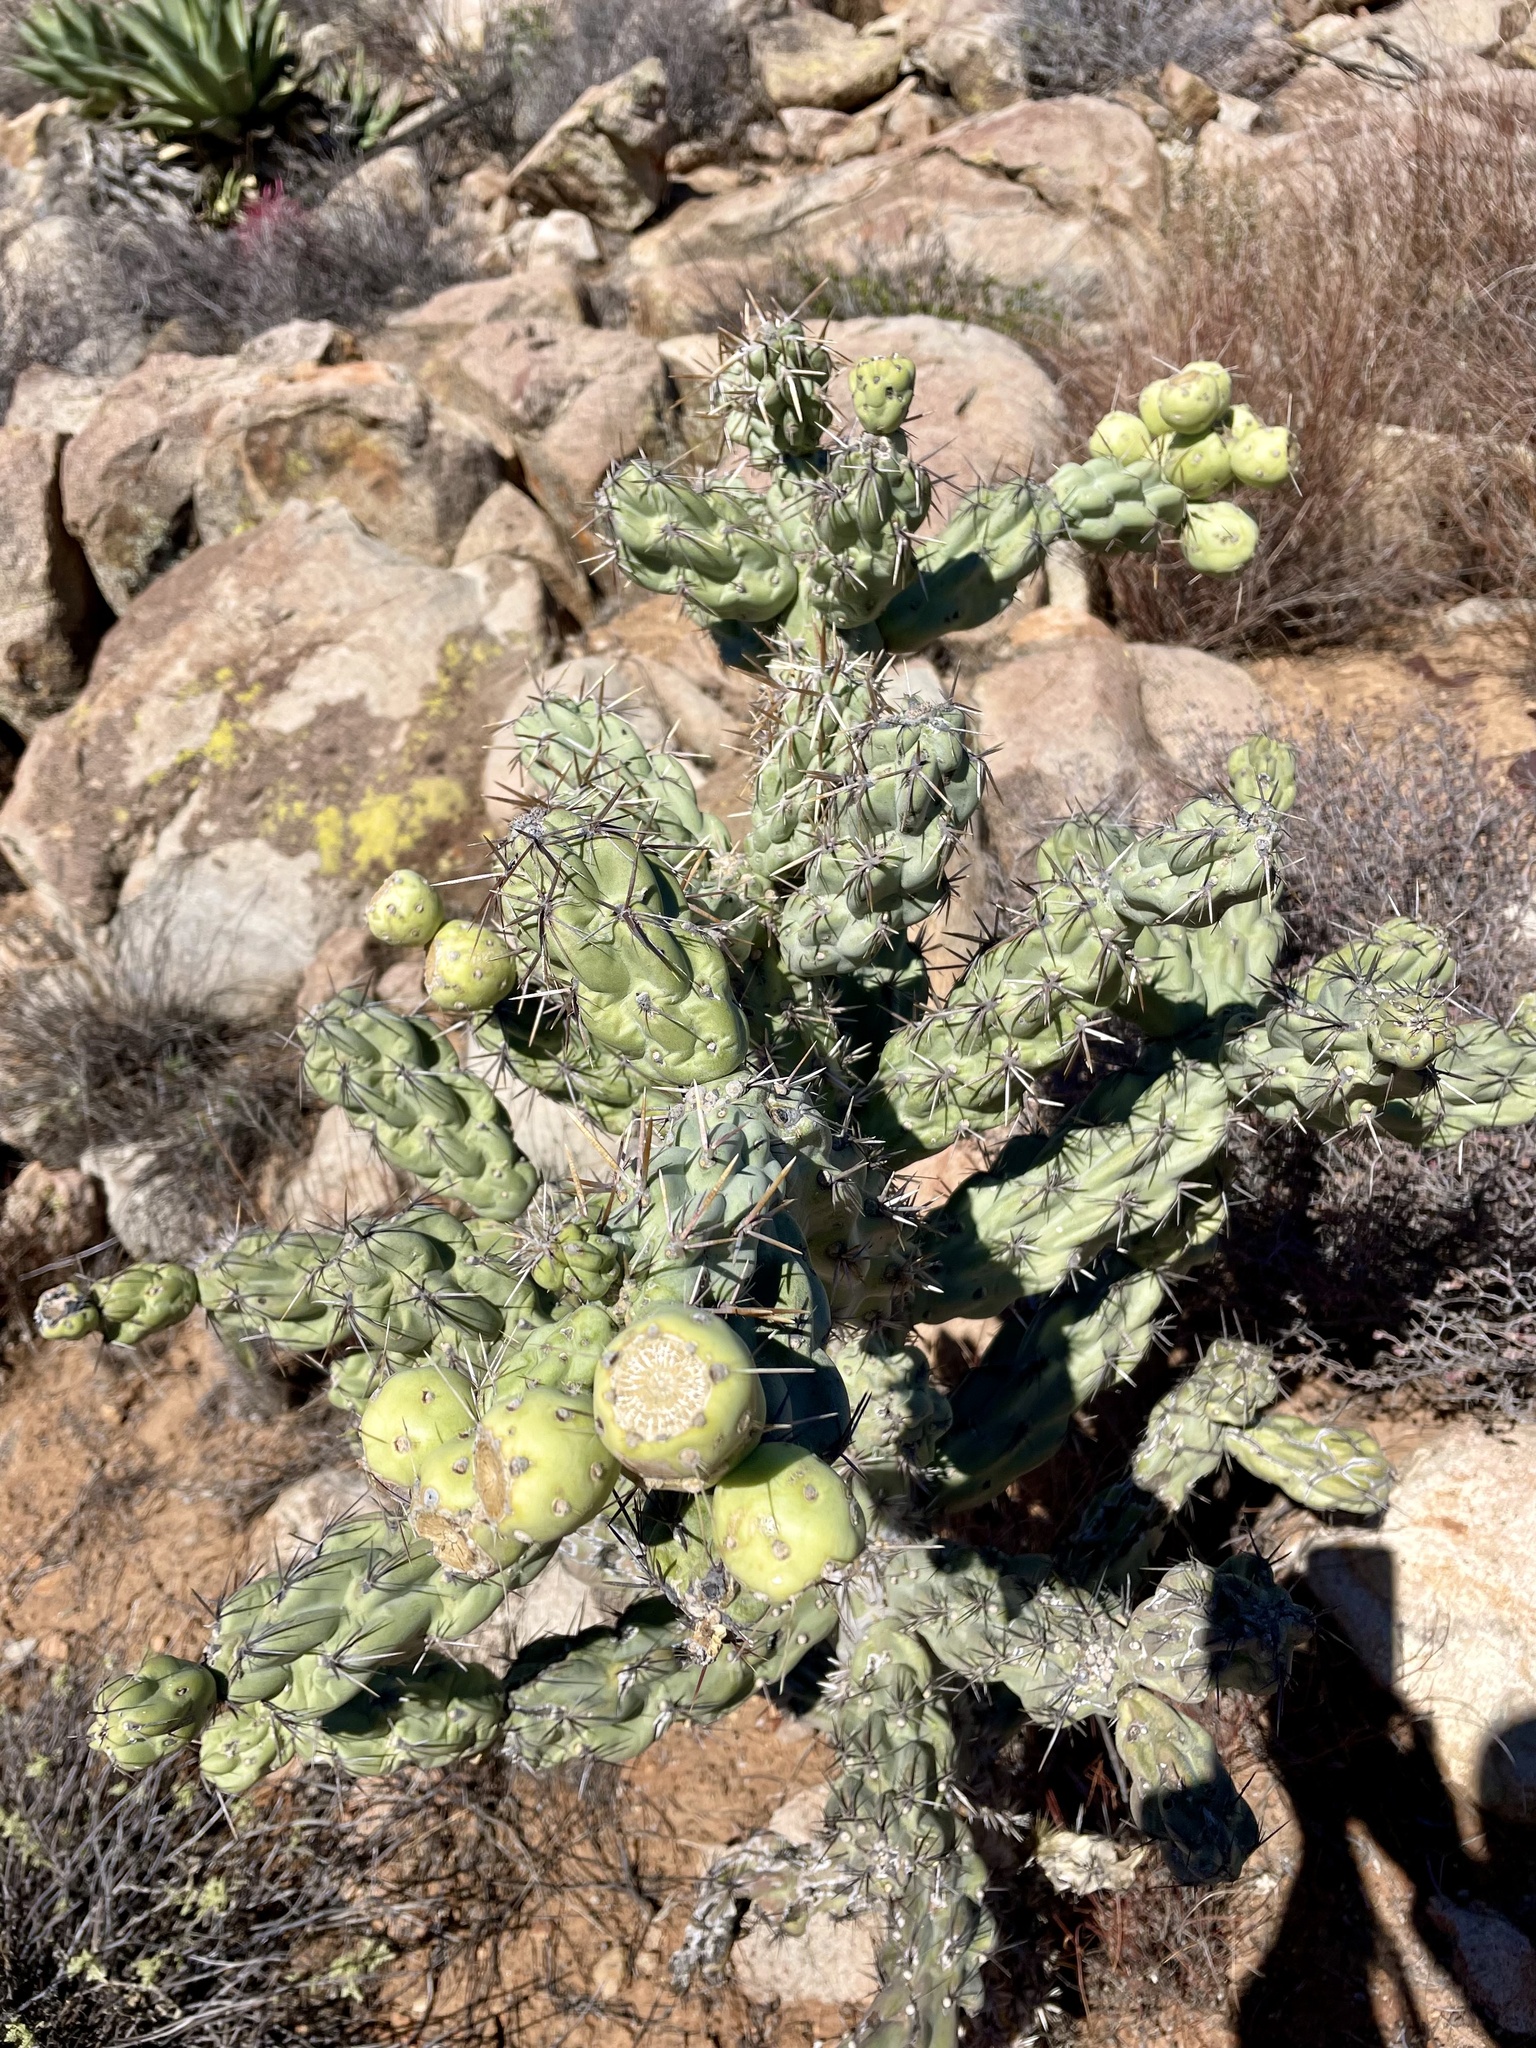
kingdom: Plantae
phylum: Tracheophyta
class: Magnoliopsida
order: Caryophyllales
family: Cactaceae
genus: Cylindropuntia
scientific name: Cylindropuntia cholla
